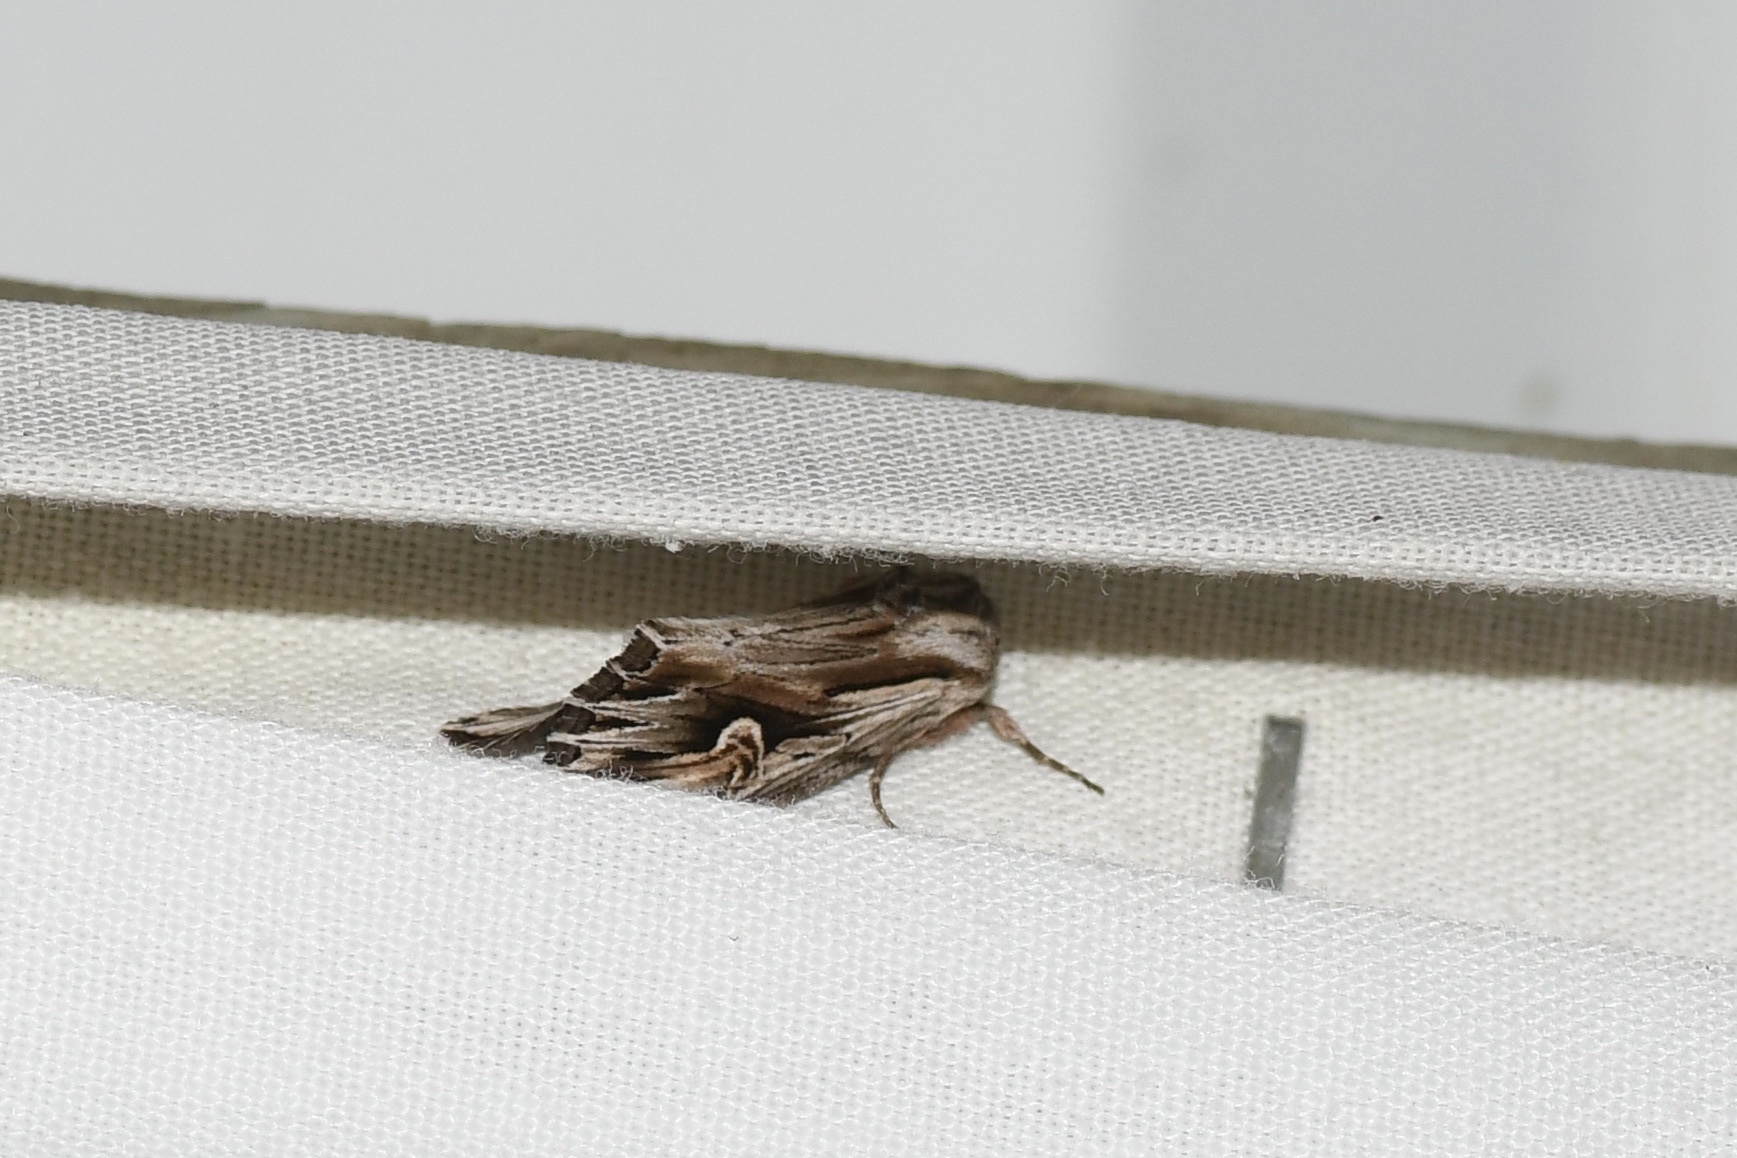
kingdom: Animalia
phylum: Arthropoda
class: Insecta
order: Lepidoptera
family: Noctuidae
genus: Nedra
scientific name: Nedra ramosula
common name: Gray half-spot
